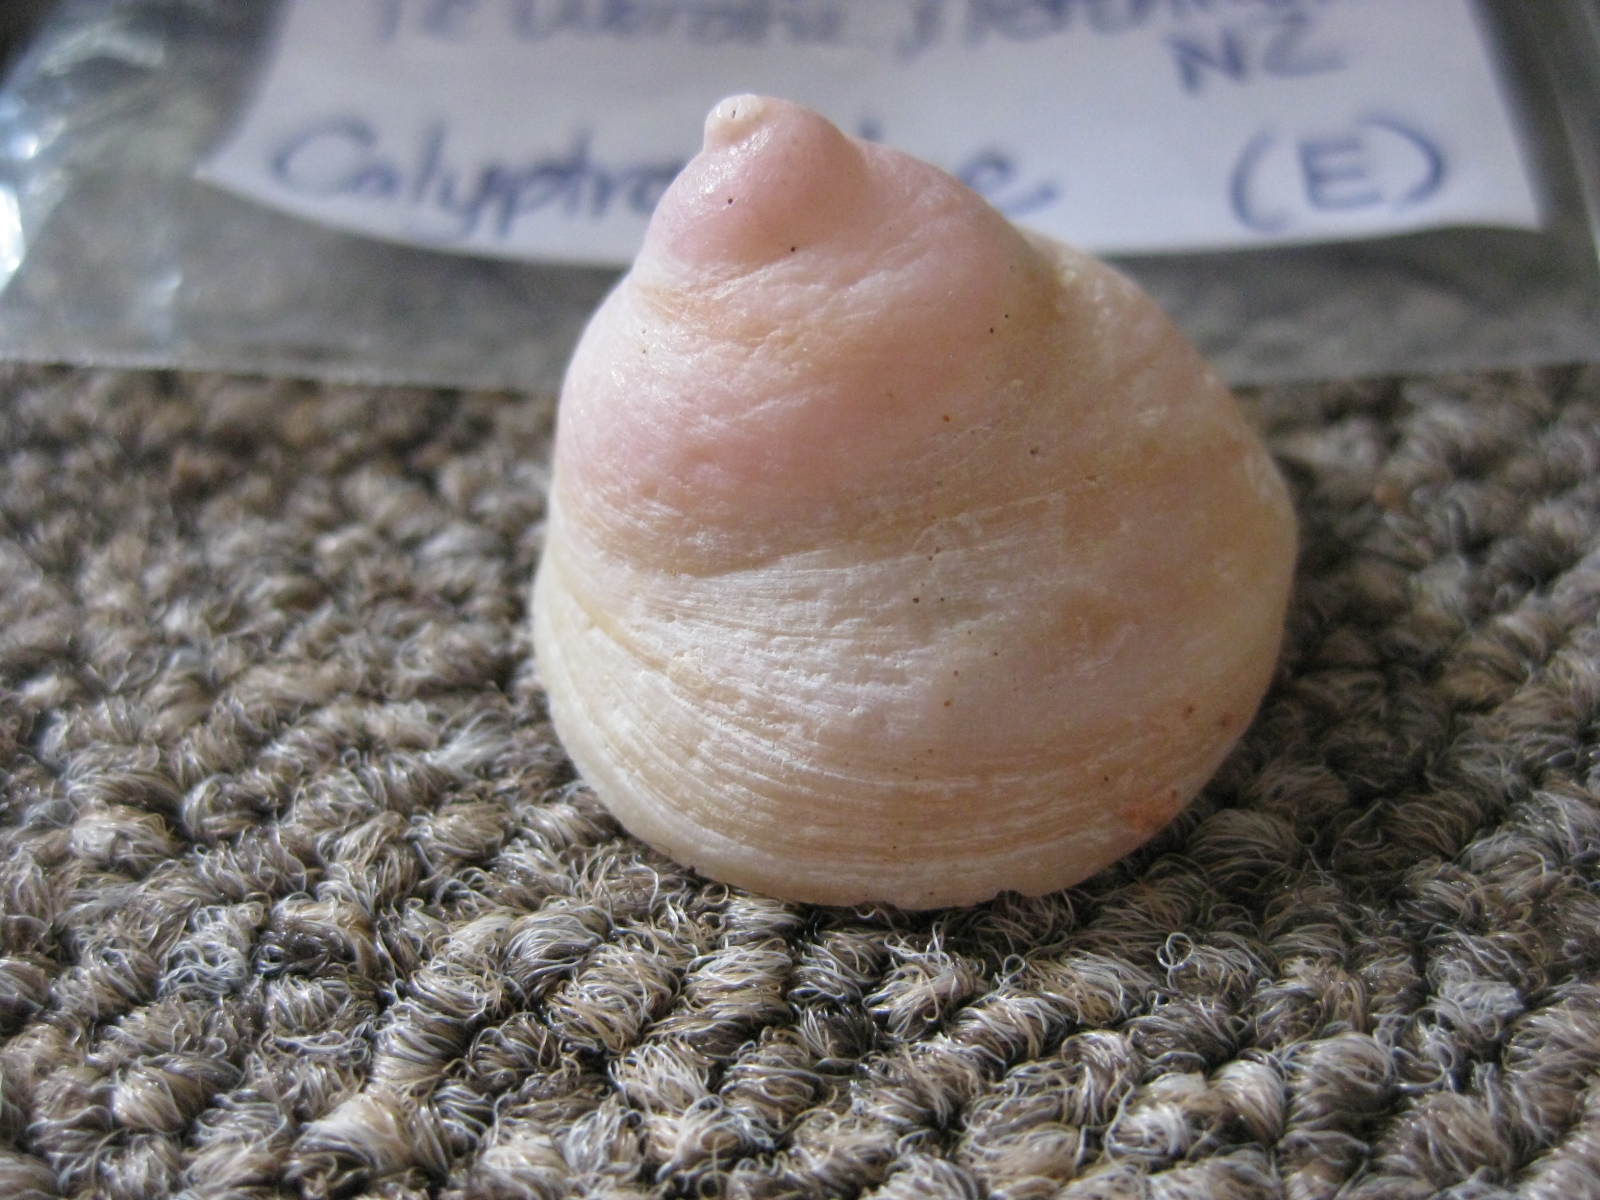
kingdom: Animalia
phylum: Mollusca
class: Gastropoda
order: Littorinimorpha
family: Calyptraeidae
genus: Sigapatella
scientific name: Sigapatella terraenovae
